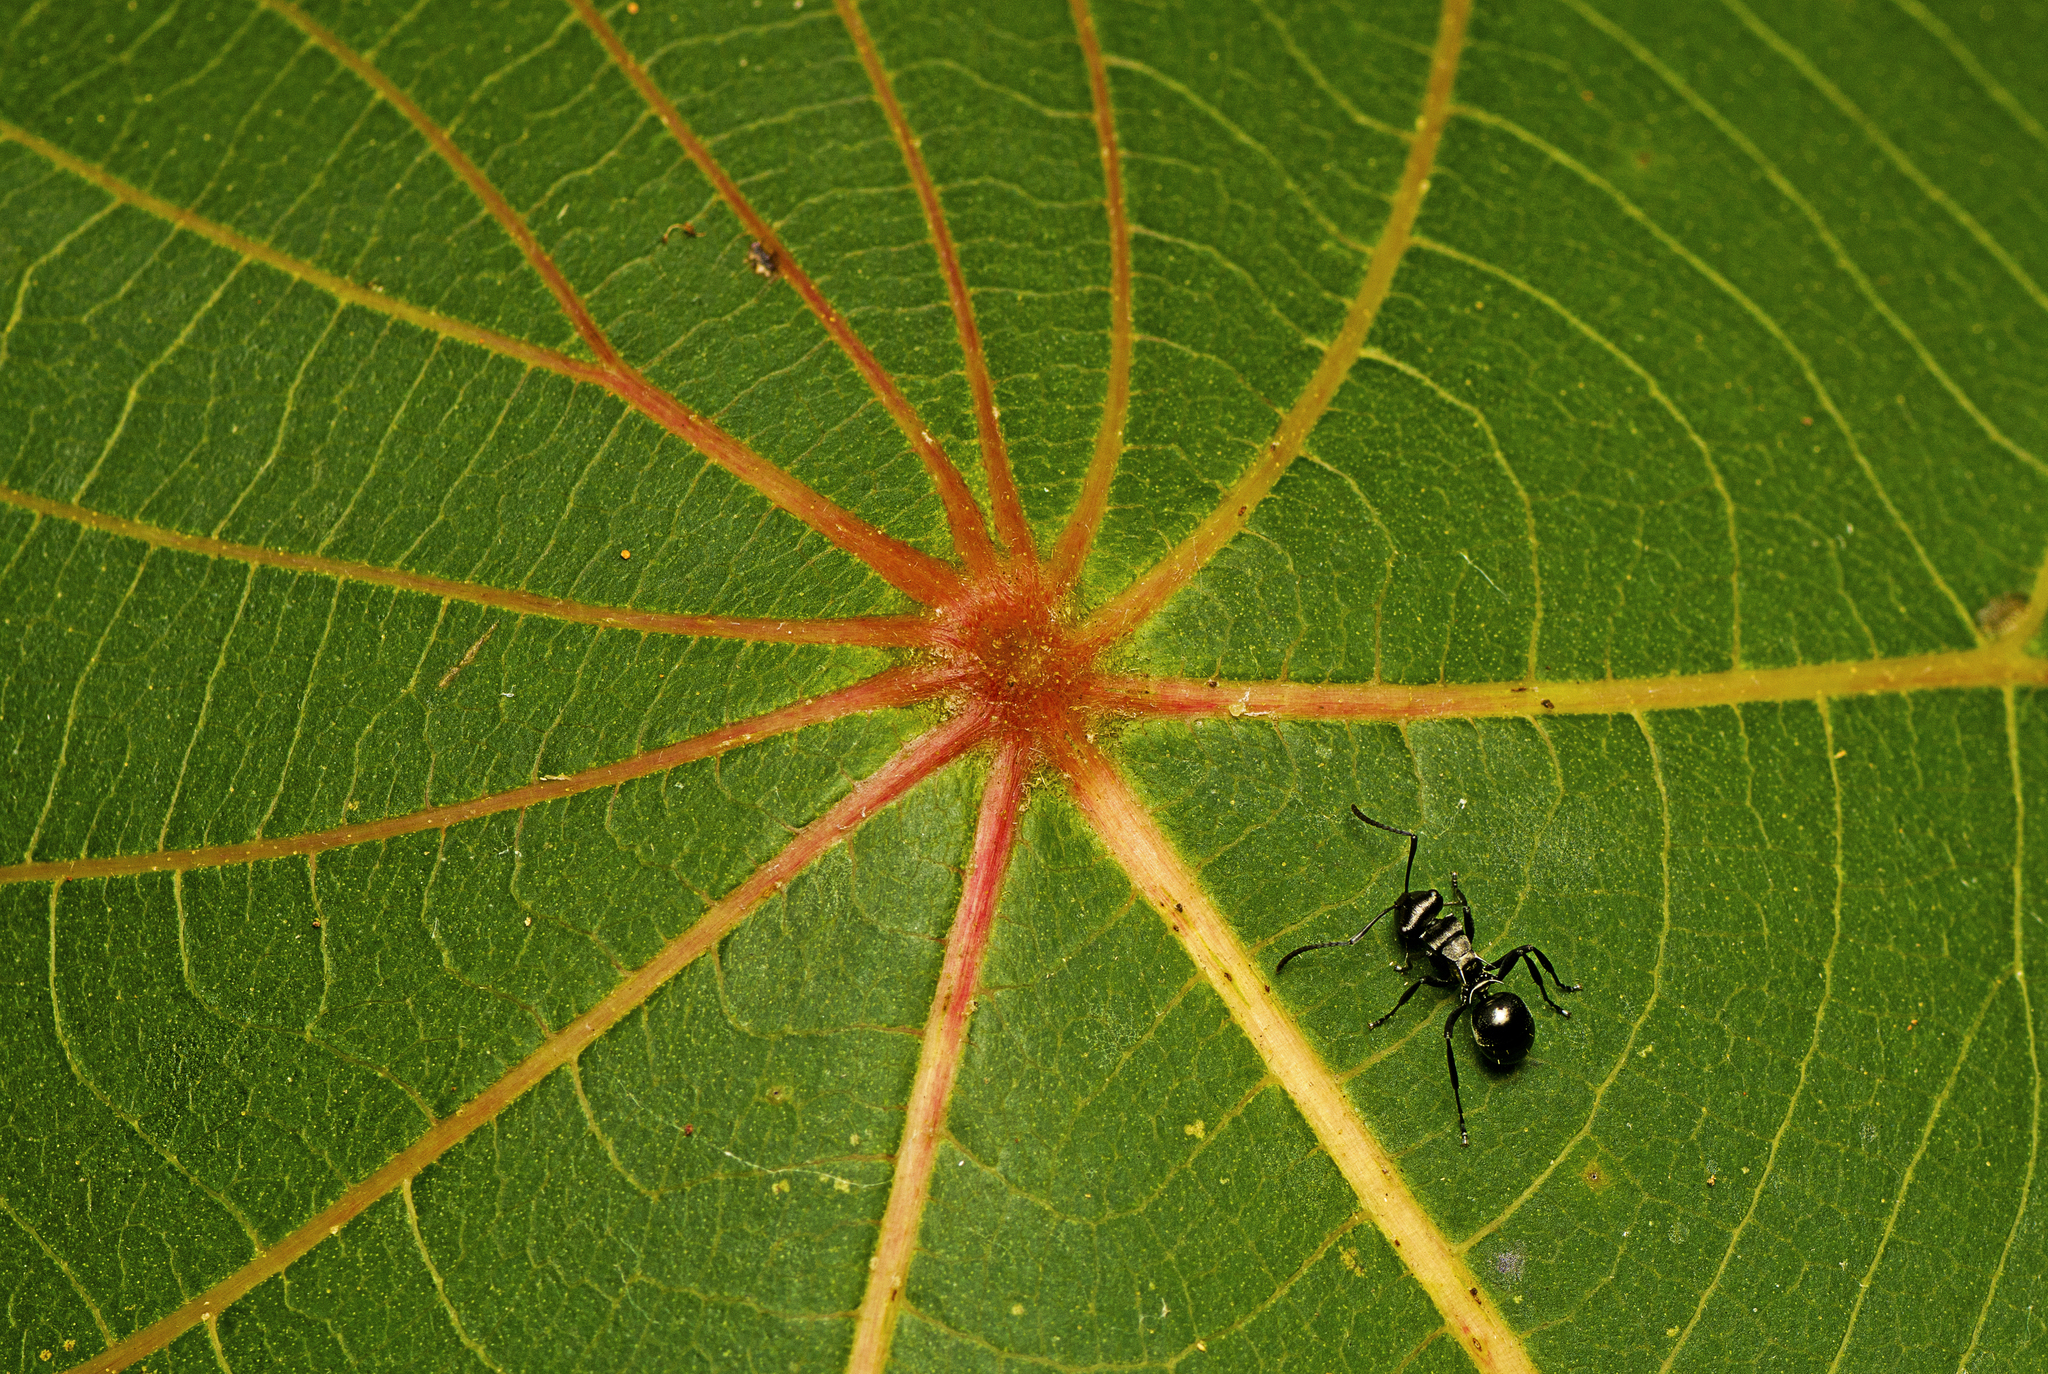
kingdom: Animalia
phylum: Arthropoda
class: Insecta
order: Hymenoptera
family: Formicidae
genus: Polyrhachis
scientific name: Polyrhachis clio
